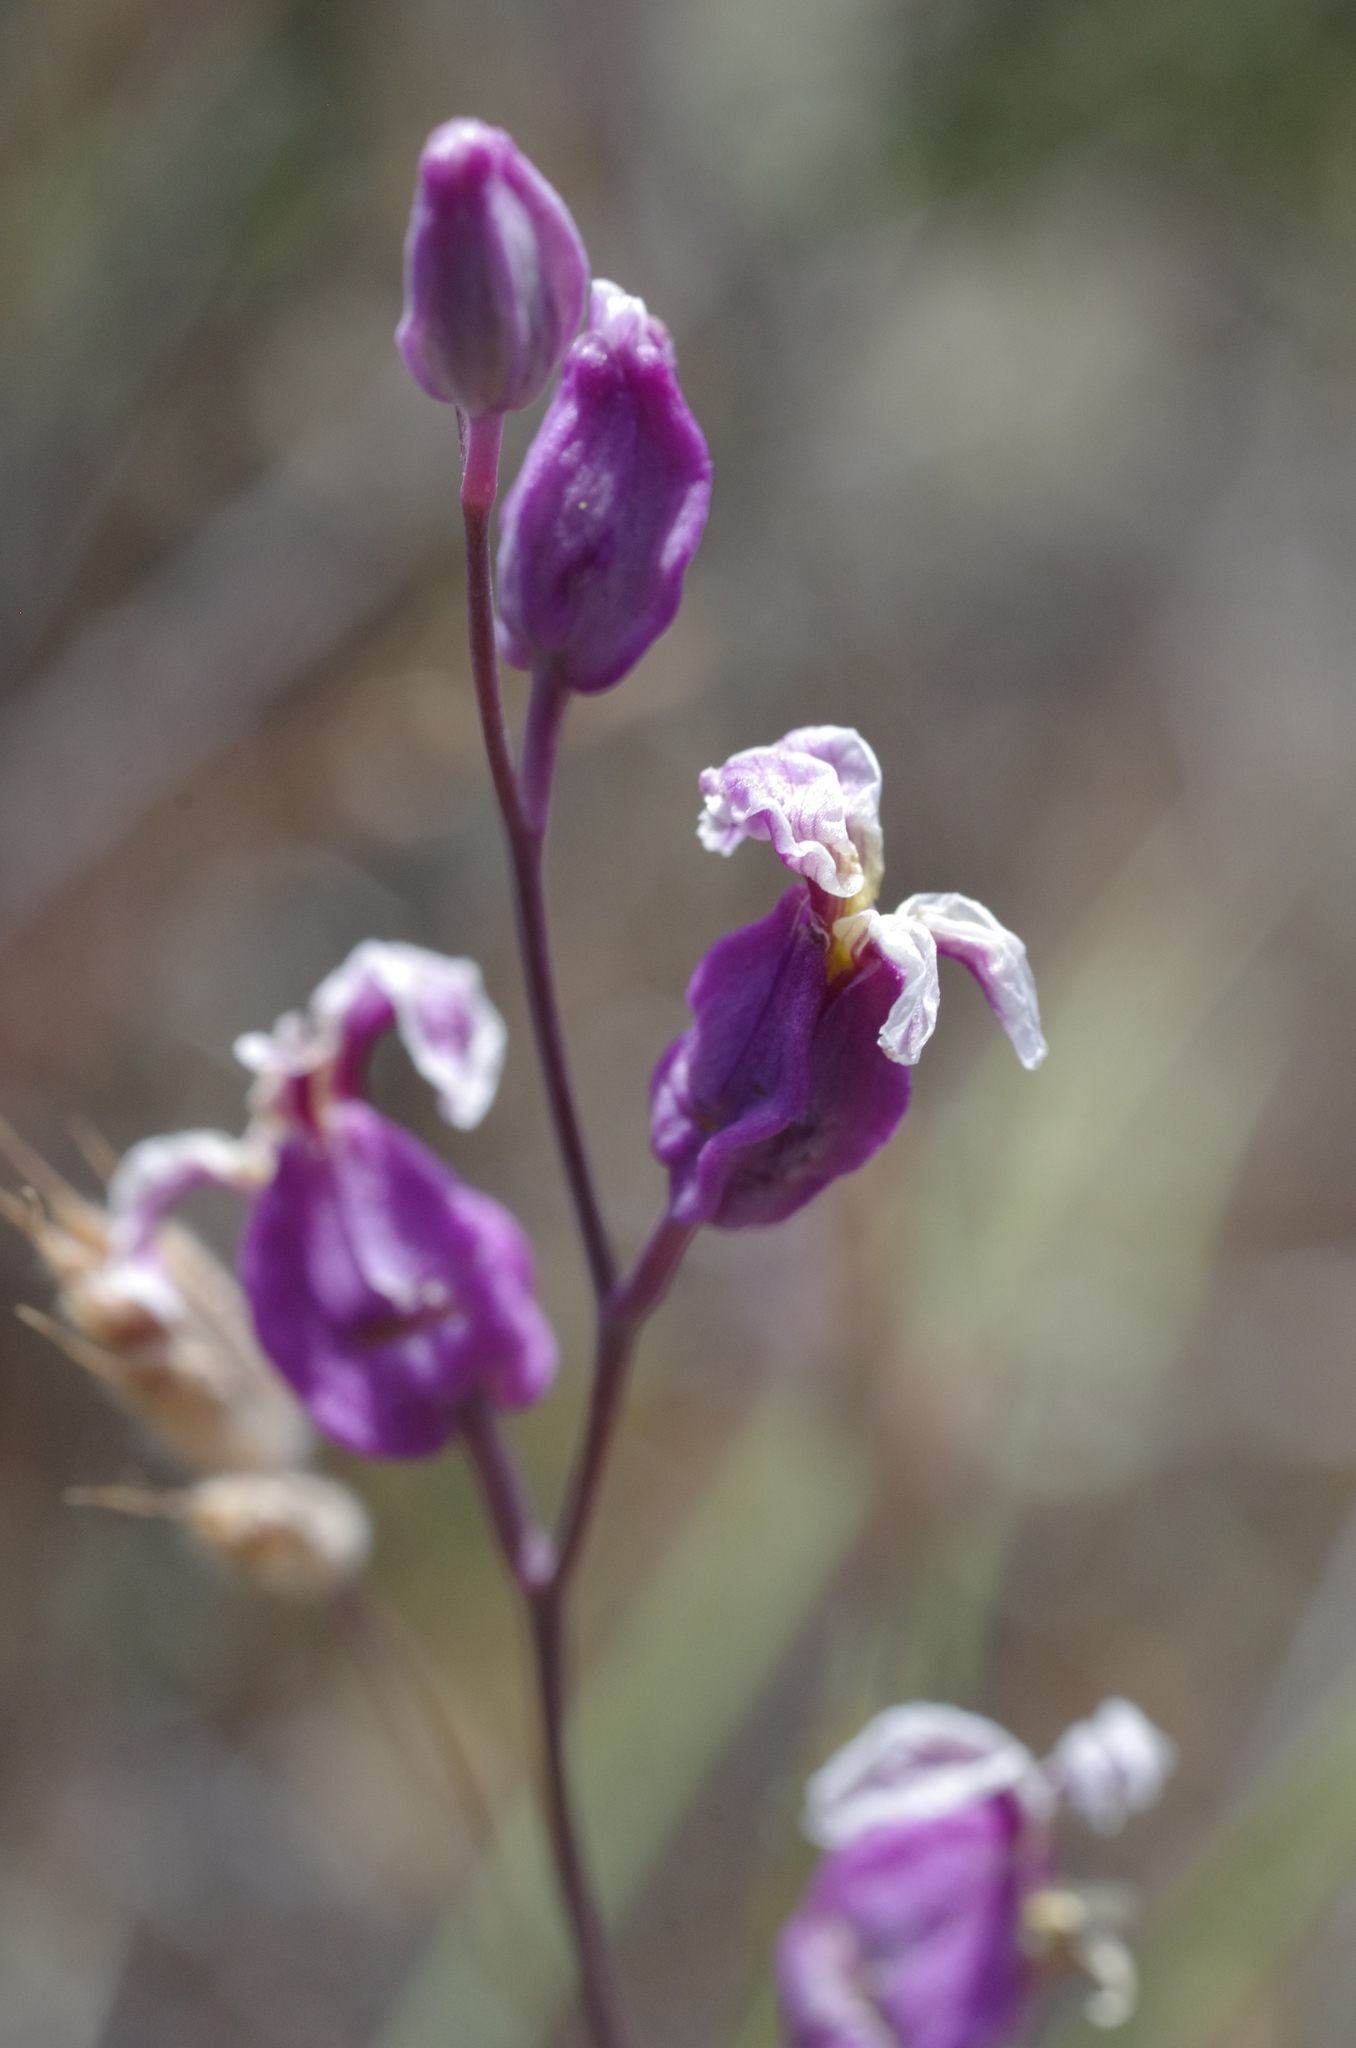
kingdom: Plantae
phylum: Tracheophyta
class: Magnoliopsida
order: Brassicales
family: Brassicaceae
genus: Streptanthus
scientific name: Streptanthus glandulosus
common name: Jewel-flower
